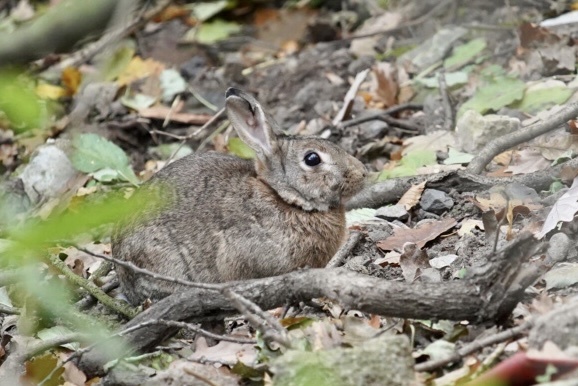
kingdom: Animalia
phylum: Chordata
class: Mammalia
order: Lagomorpha
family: Leporidae
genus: Oryctolagus
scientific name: Oryctolagus cuniculus
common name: European rabbit
